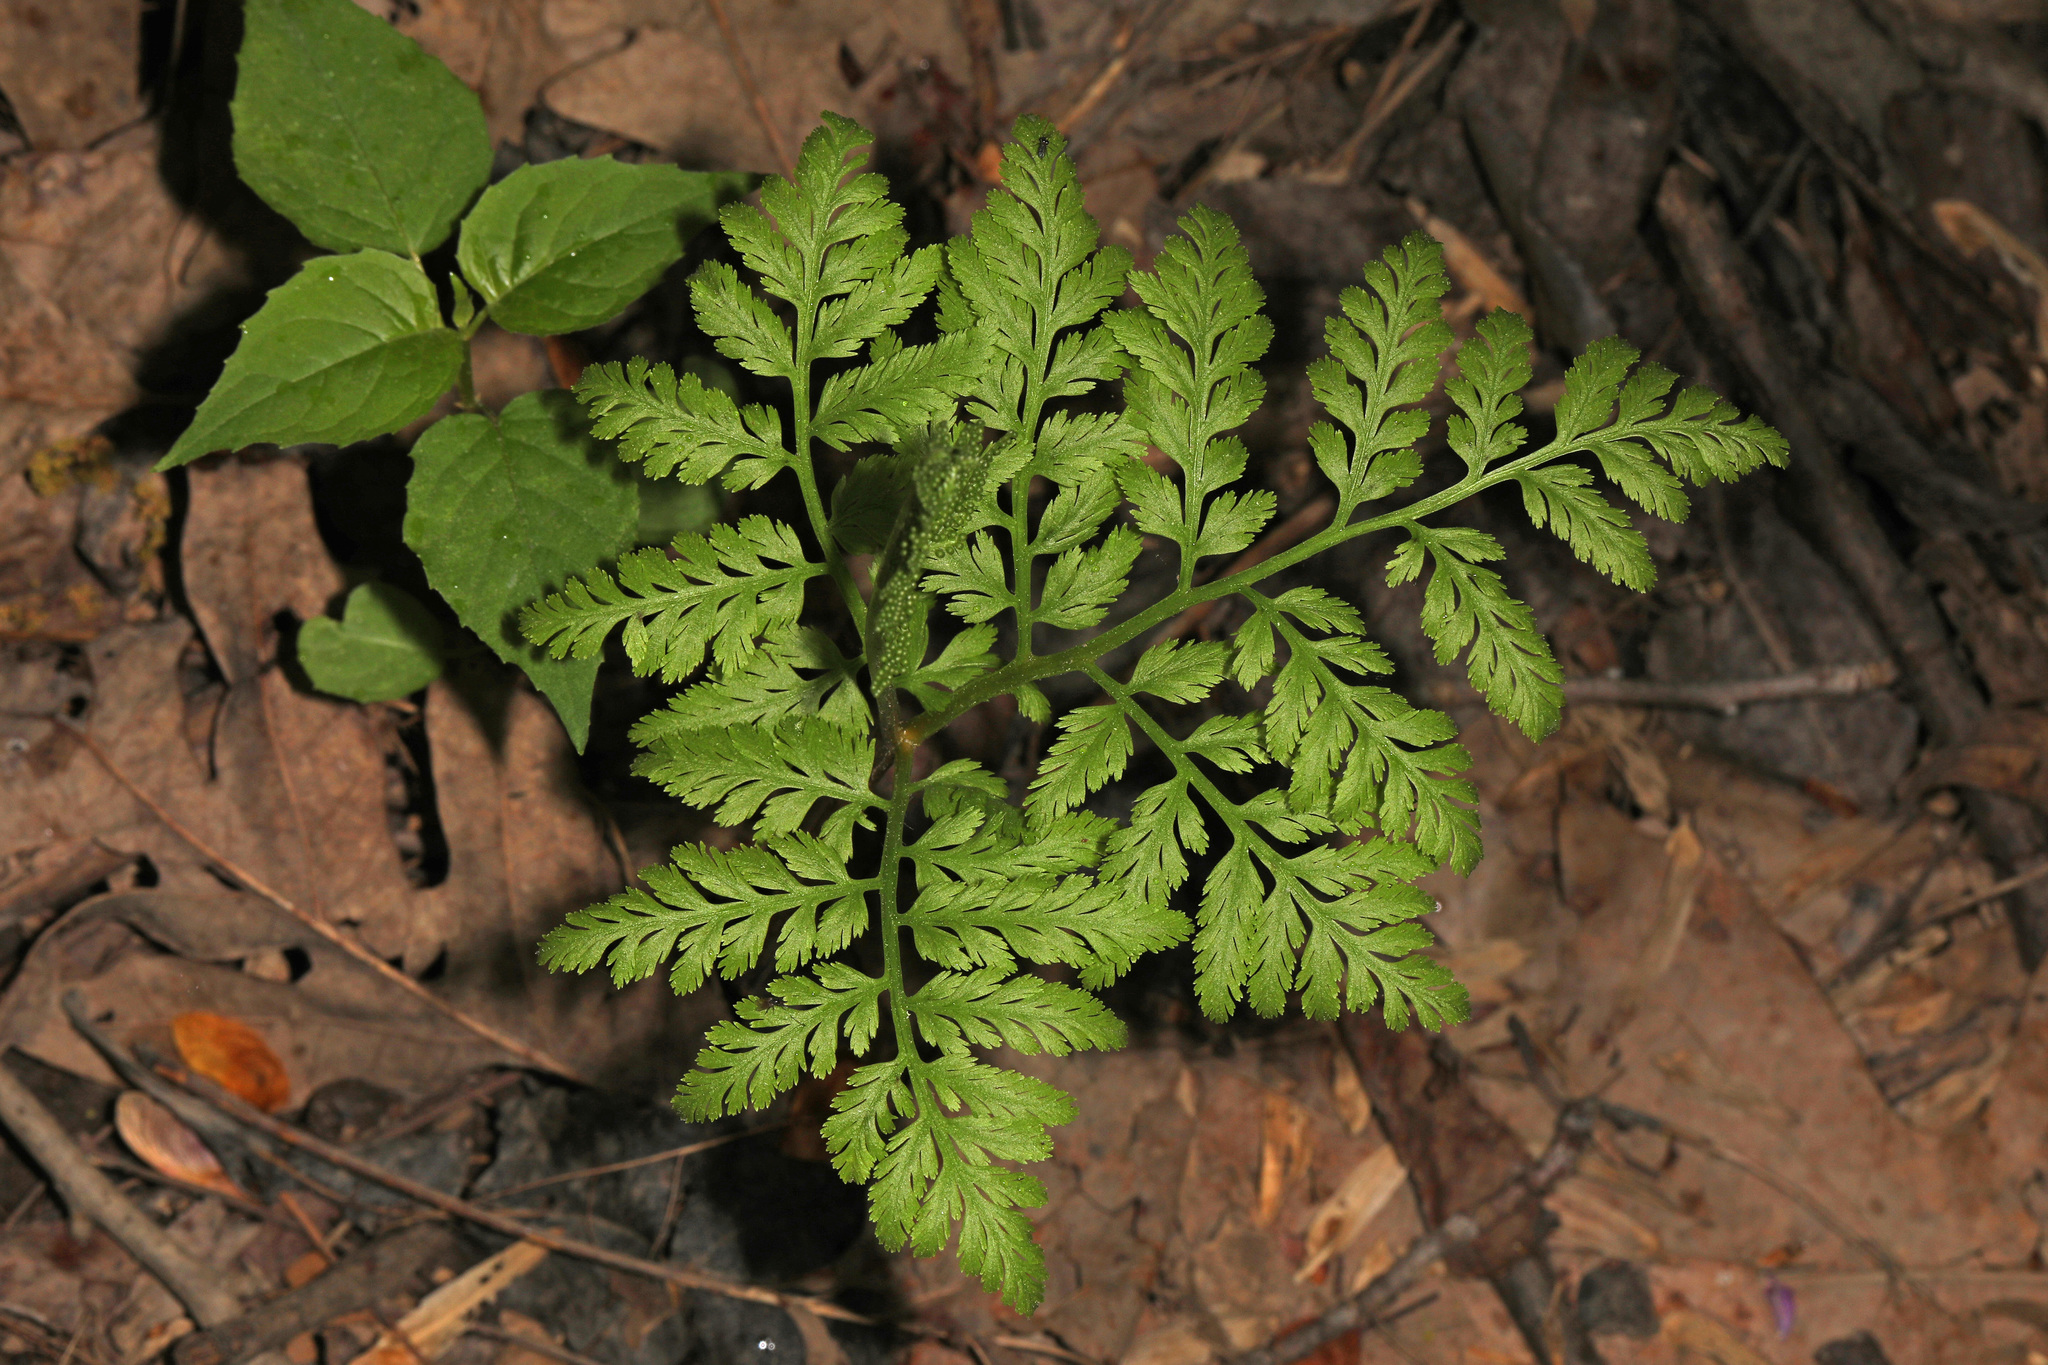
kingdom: Plantae
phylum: Tracheophyta
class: Polypodiopsida
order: Ophioglossales
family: Ophioglossaceae
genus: Botrypus
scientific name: Botrypus virginianus
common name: Common grapefern
